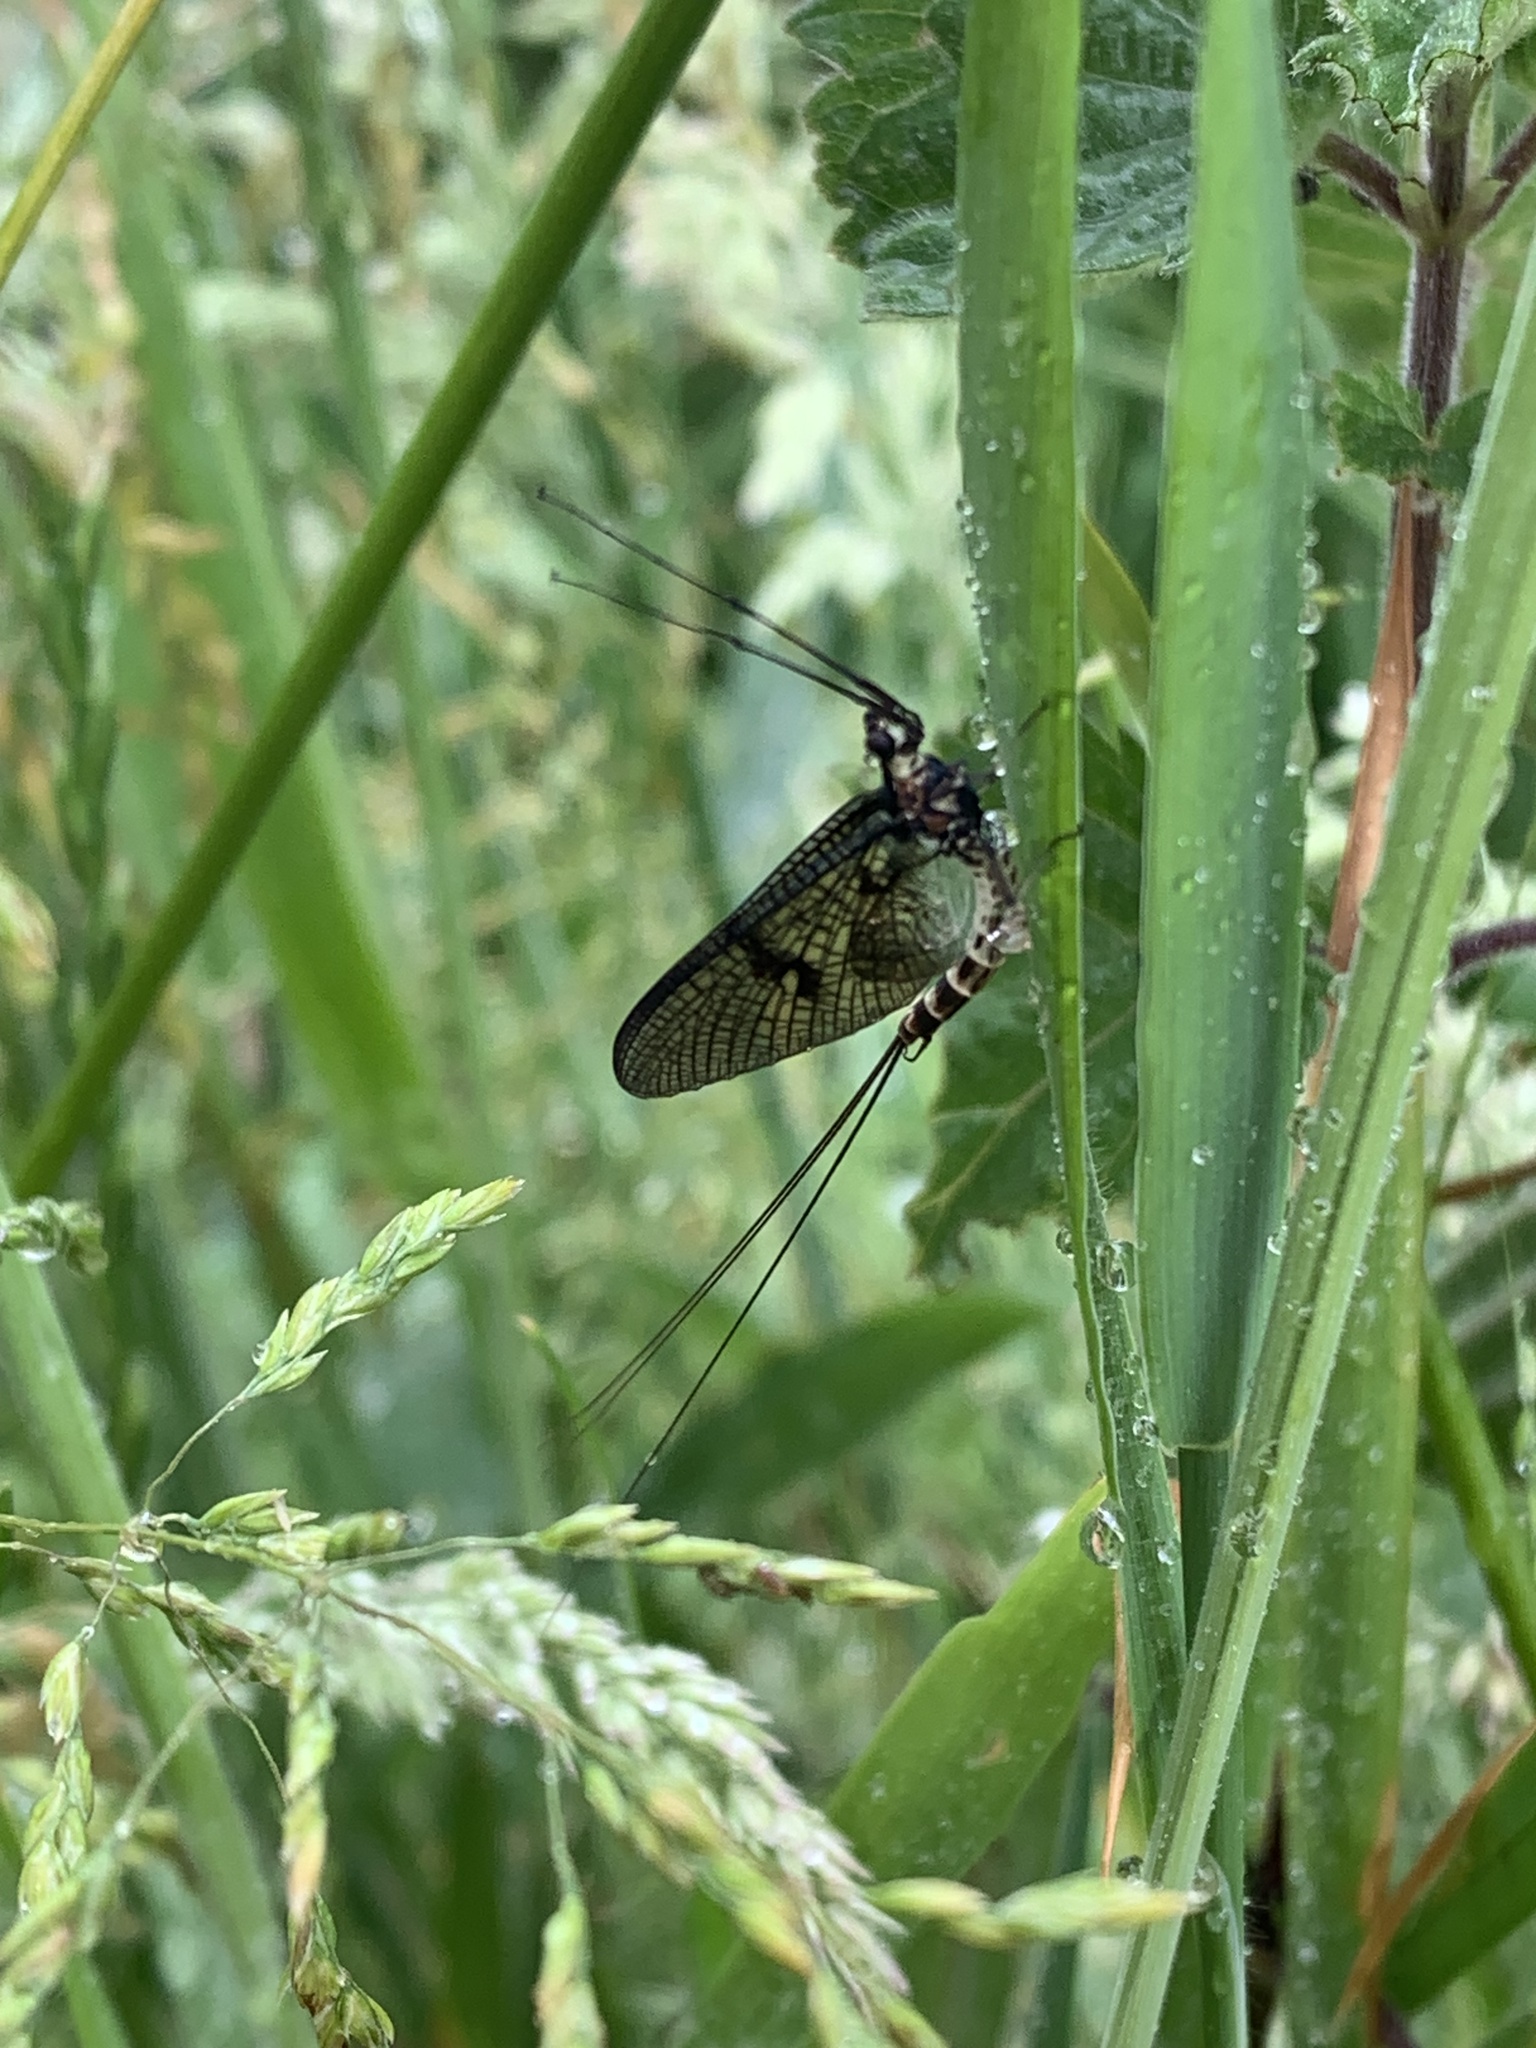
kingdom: Animalia
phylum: Arthropoda
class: Insecta
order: Ephemeroptera
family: Ephemeridae
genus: Ephemera
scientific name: Ephemera danica
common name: Green dun
